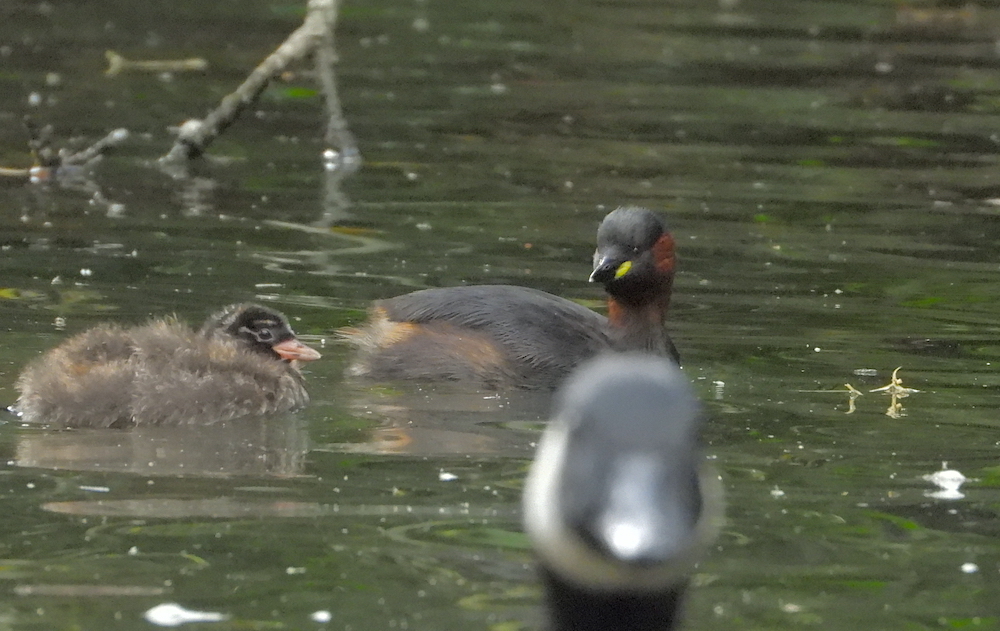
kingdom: Animalia
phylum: Chordata
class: Aves
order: Podicipediformes
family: Podicipedidae
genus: Tachybaptus
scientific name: Tachybaptus ruficollis
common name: Little grebe
